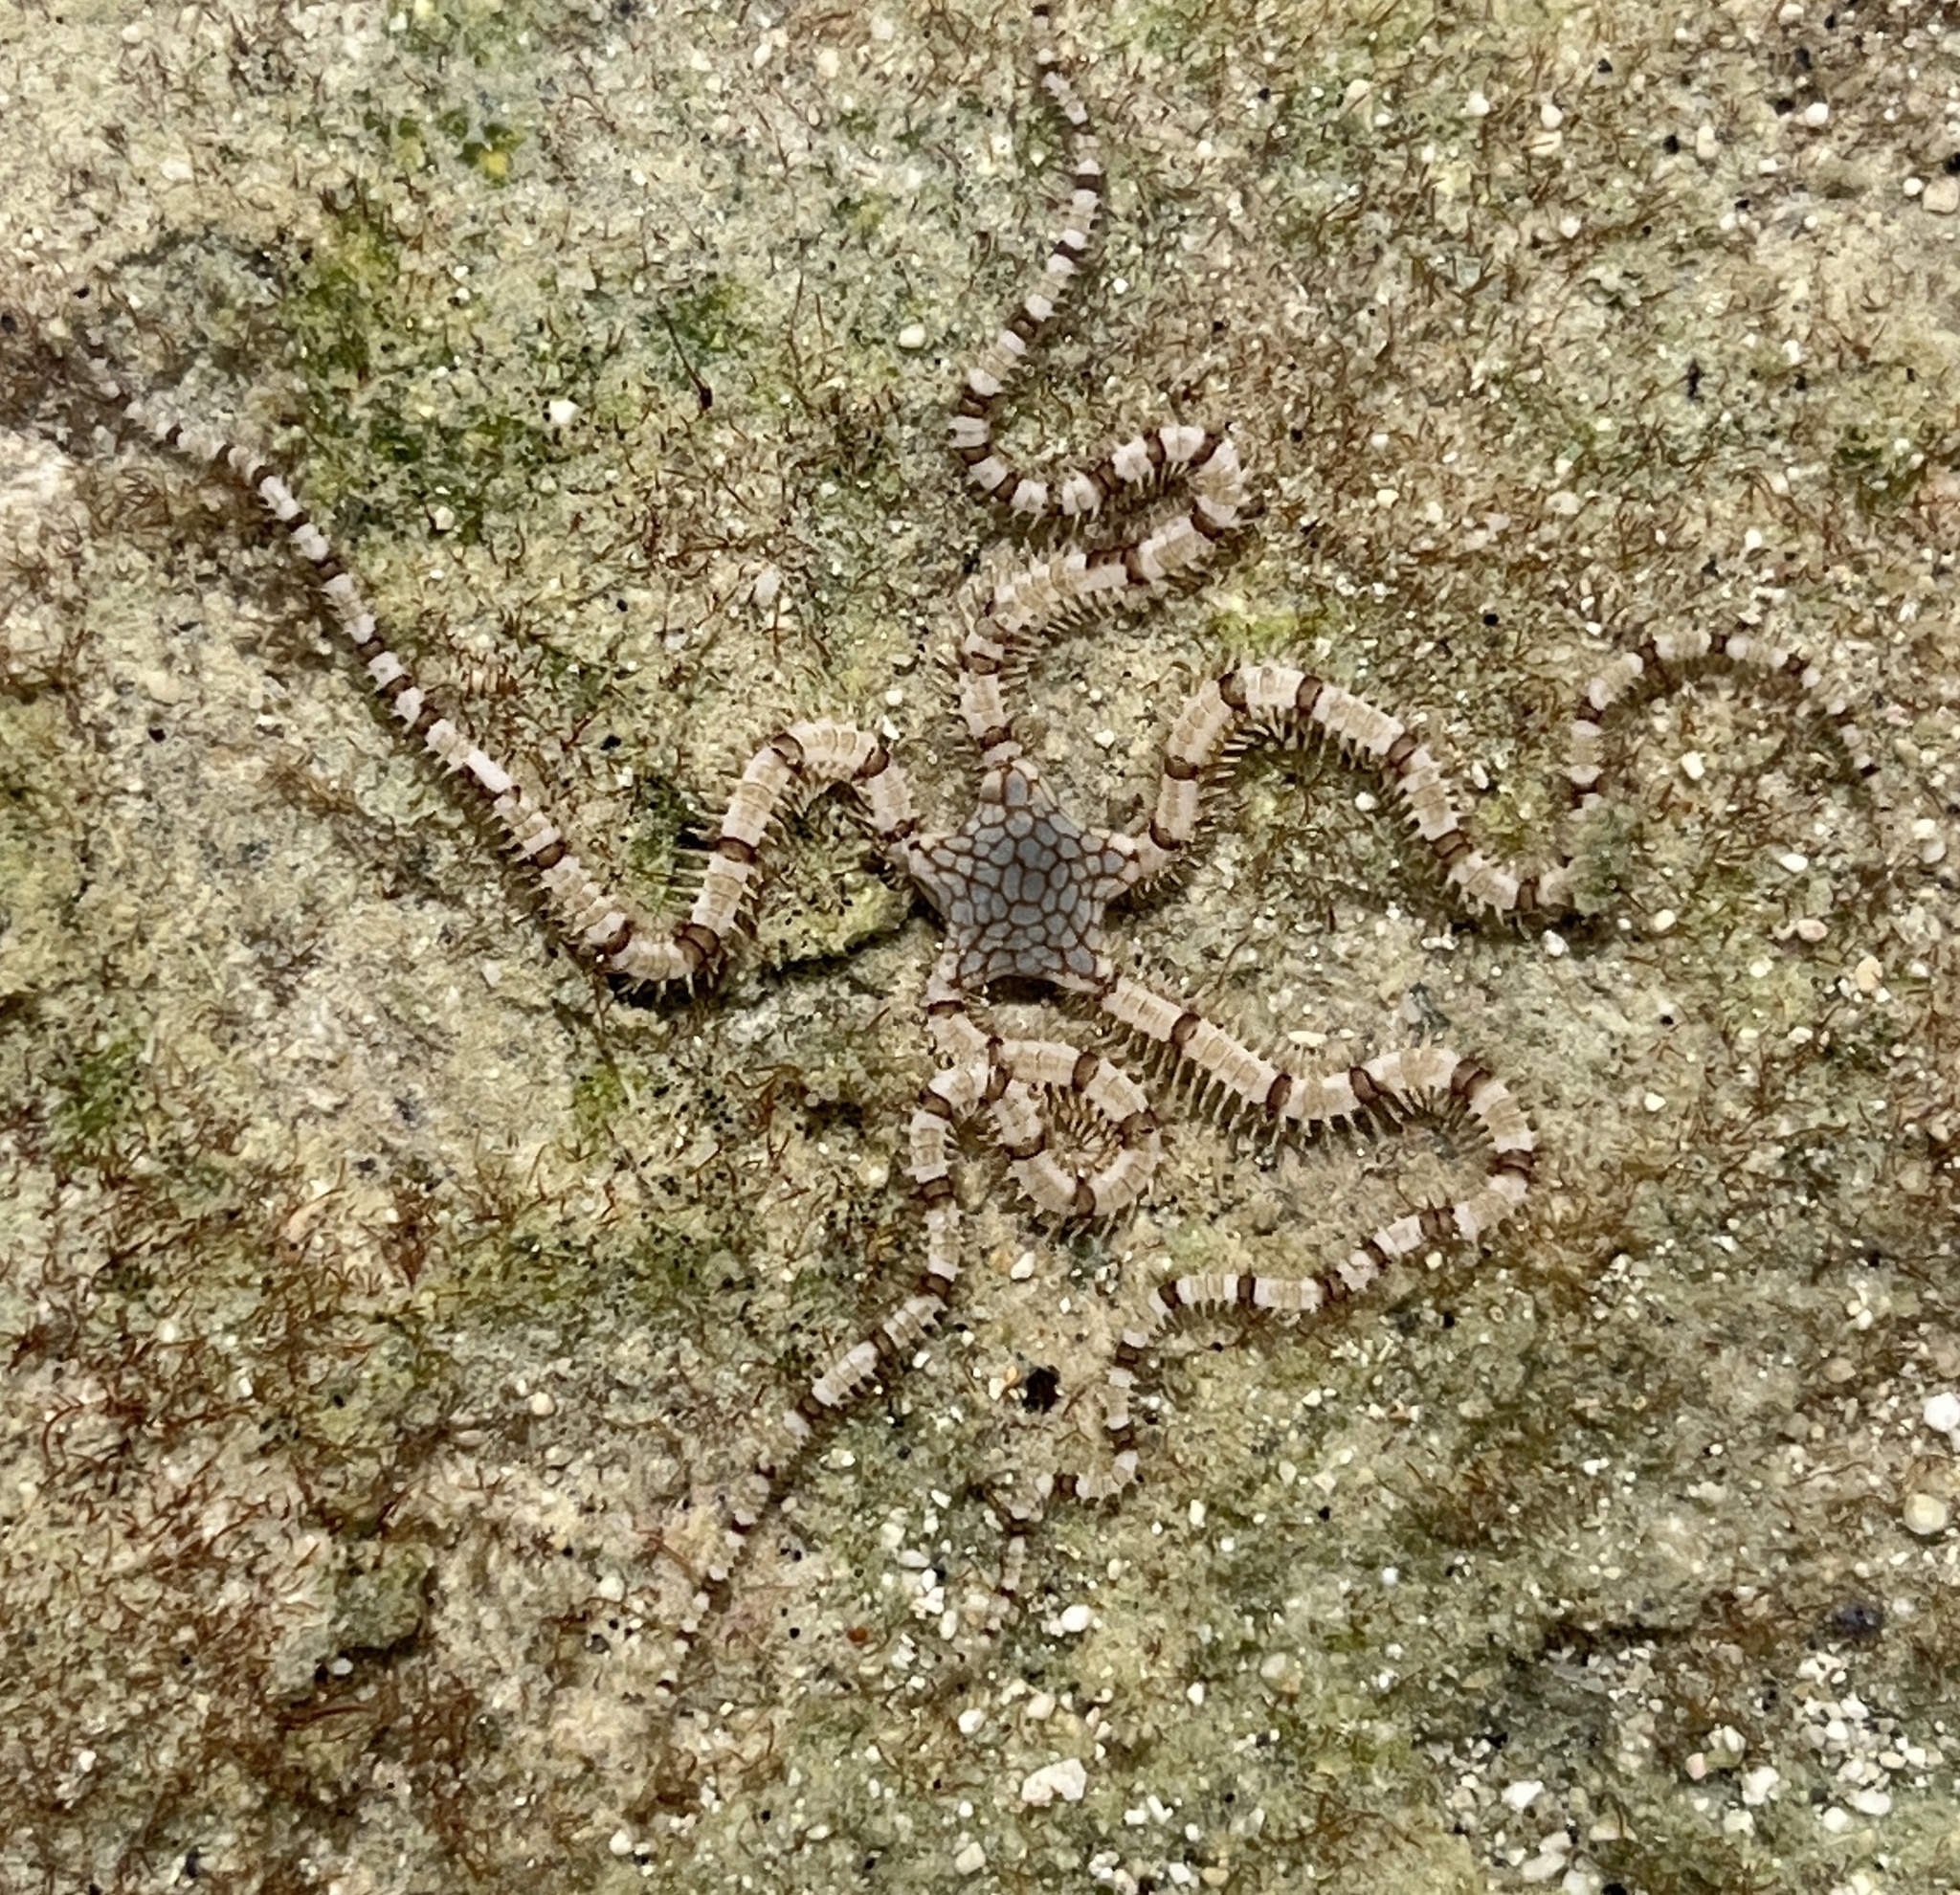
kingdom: Animalia
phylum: Echinodermata
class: Ophiuroidea
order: Amphilepidida
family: Ophionereididae
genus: Ophionereis
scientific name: Ophionereis reticulata
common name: Reticulate brittle star
